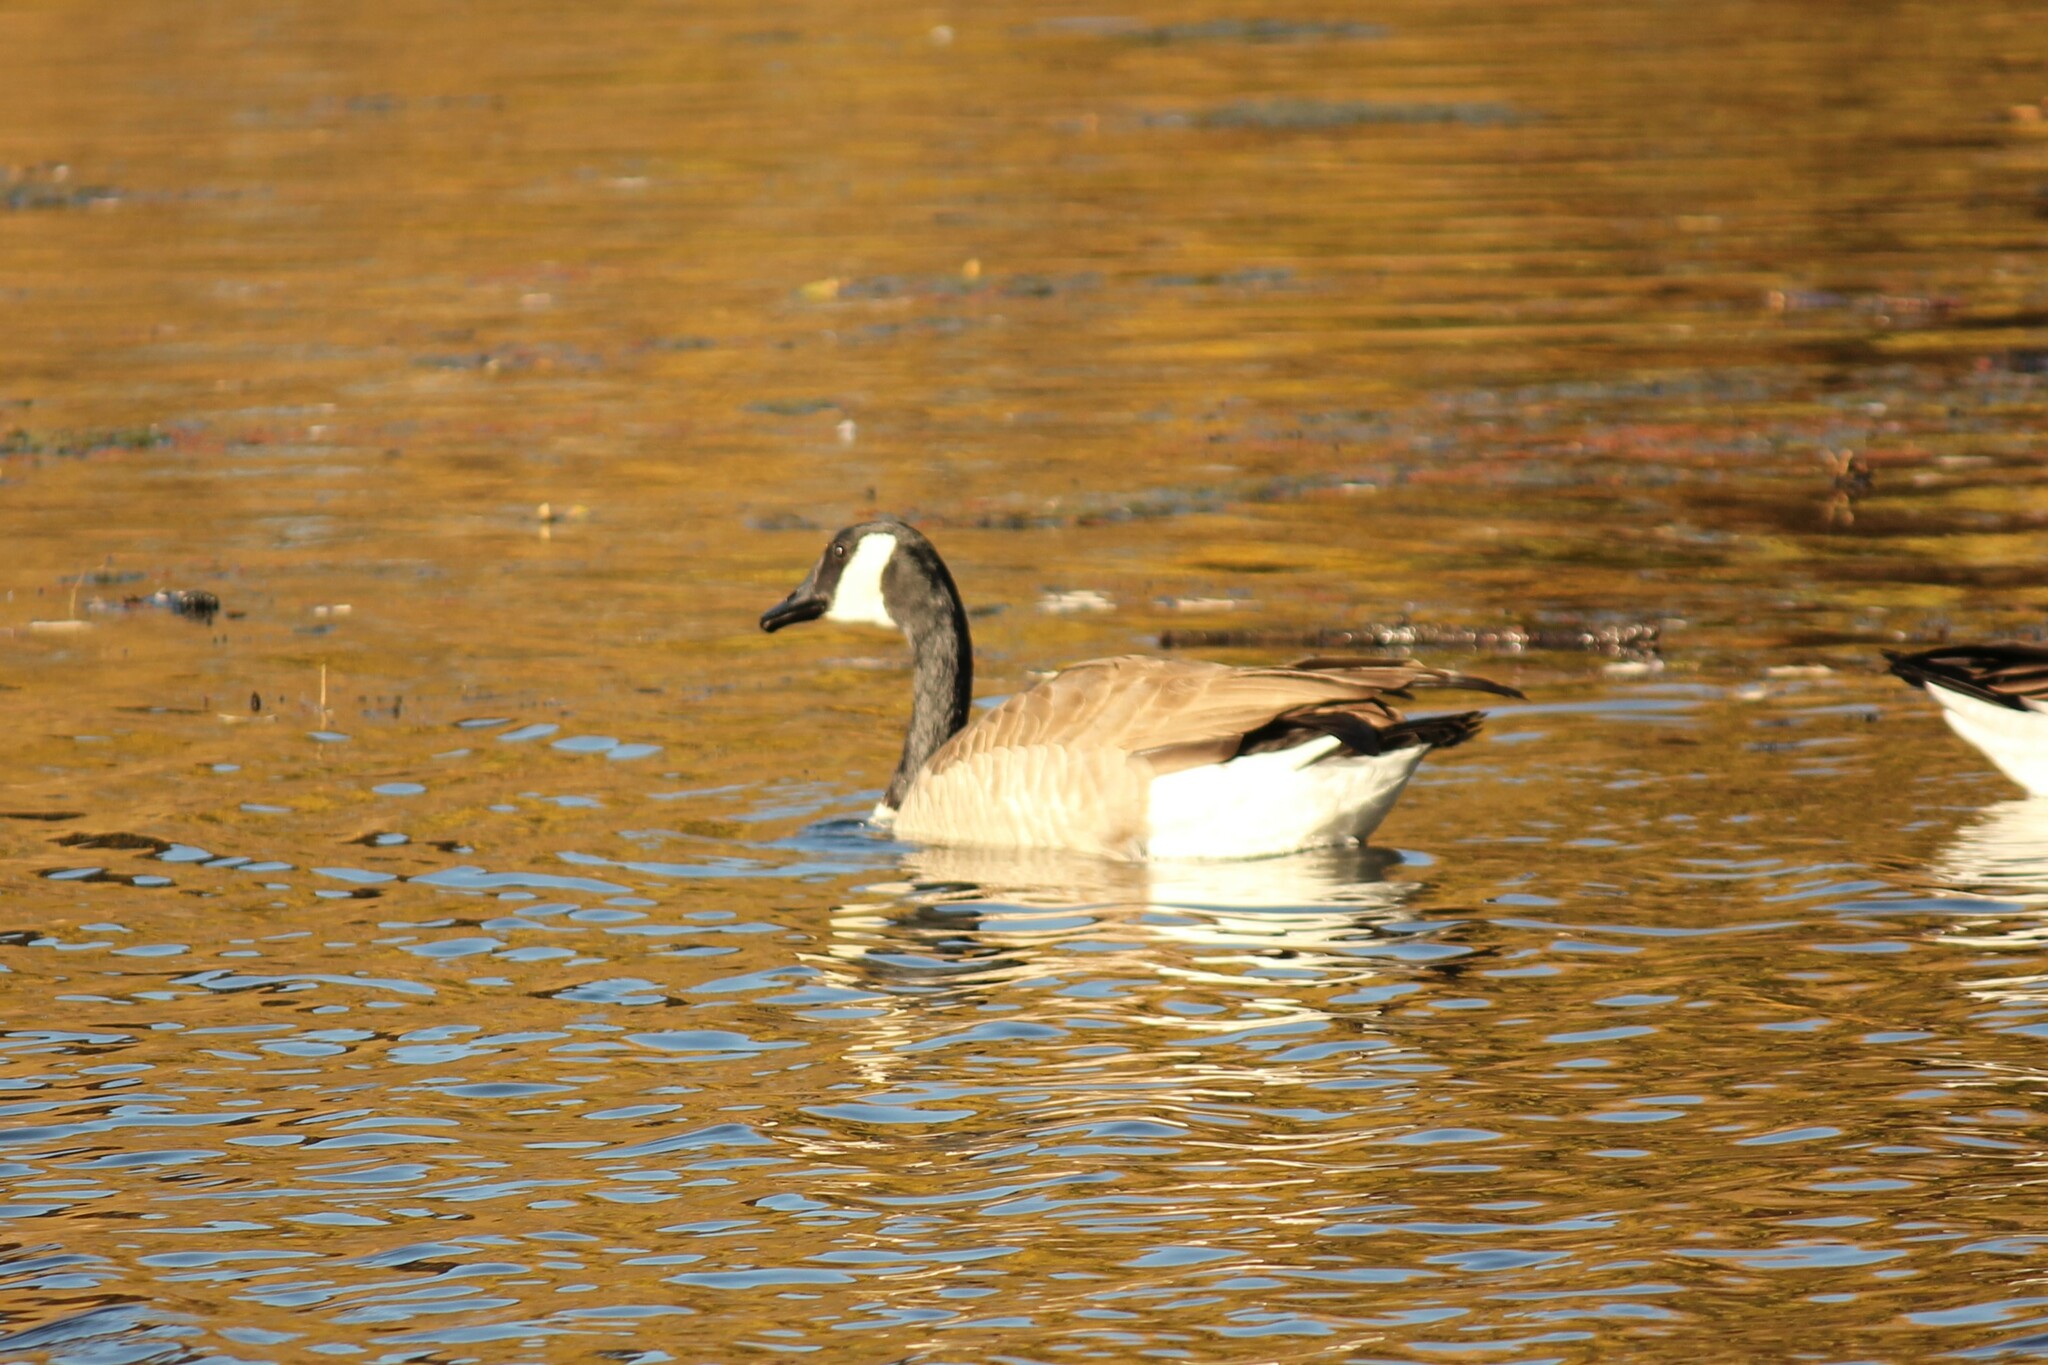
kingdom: Animalia
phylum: Chordata
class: Aves
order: Anseriformes
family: Anatidae
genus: Branta
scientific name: Branta canadensis
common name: Canada goose
